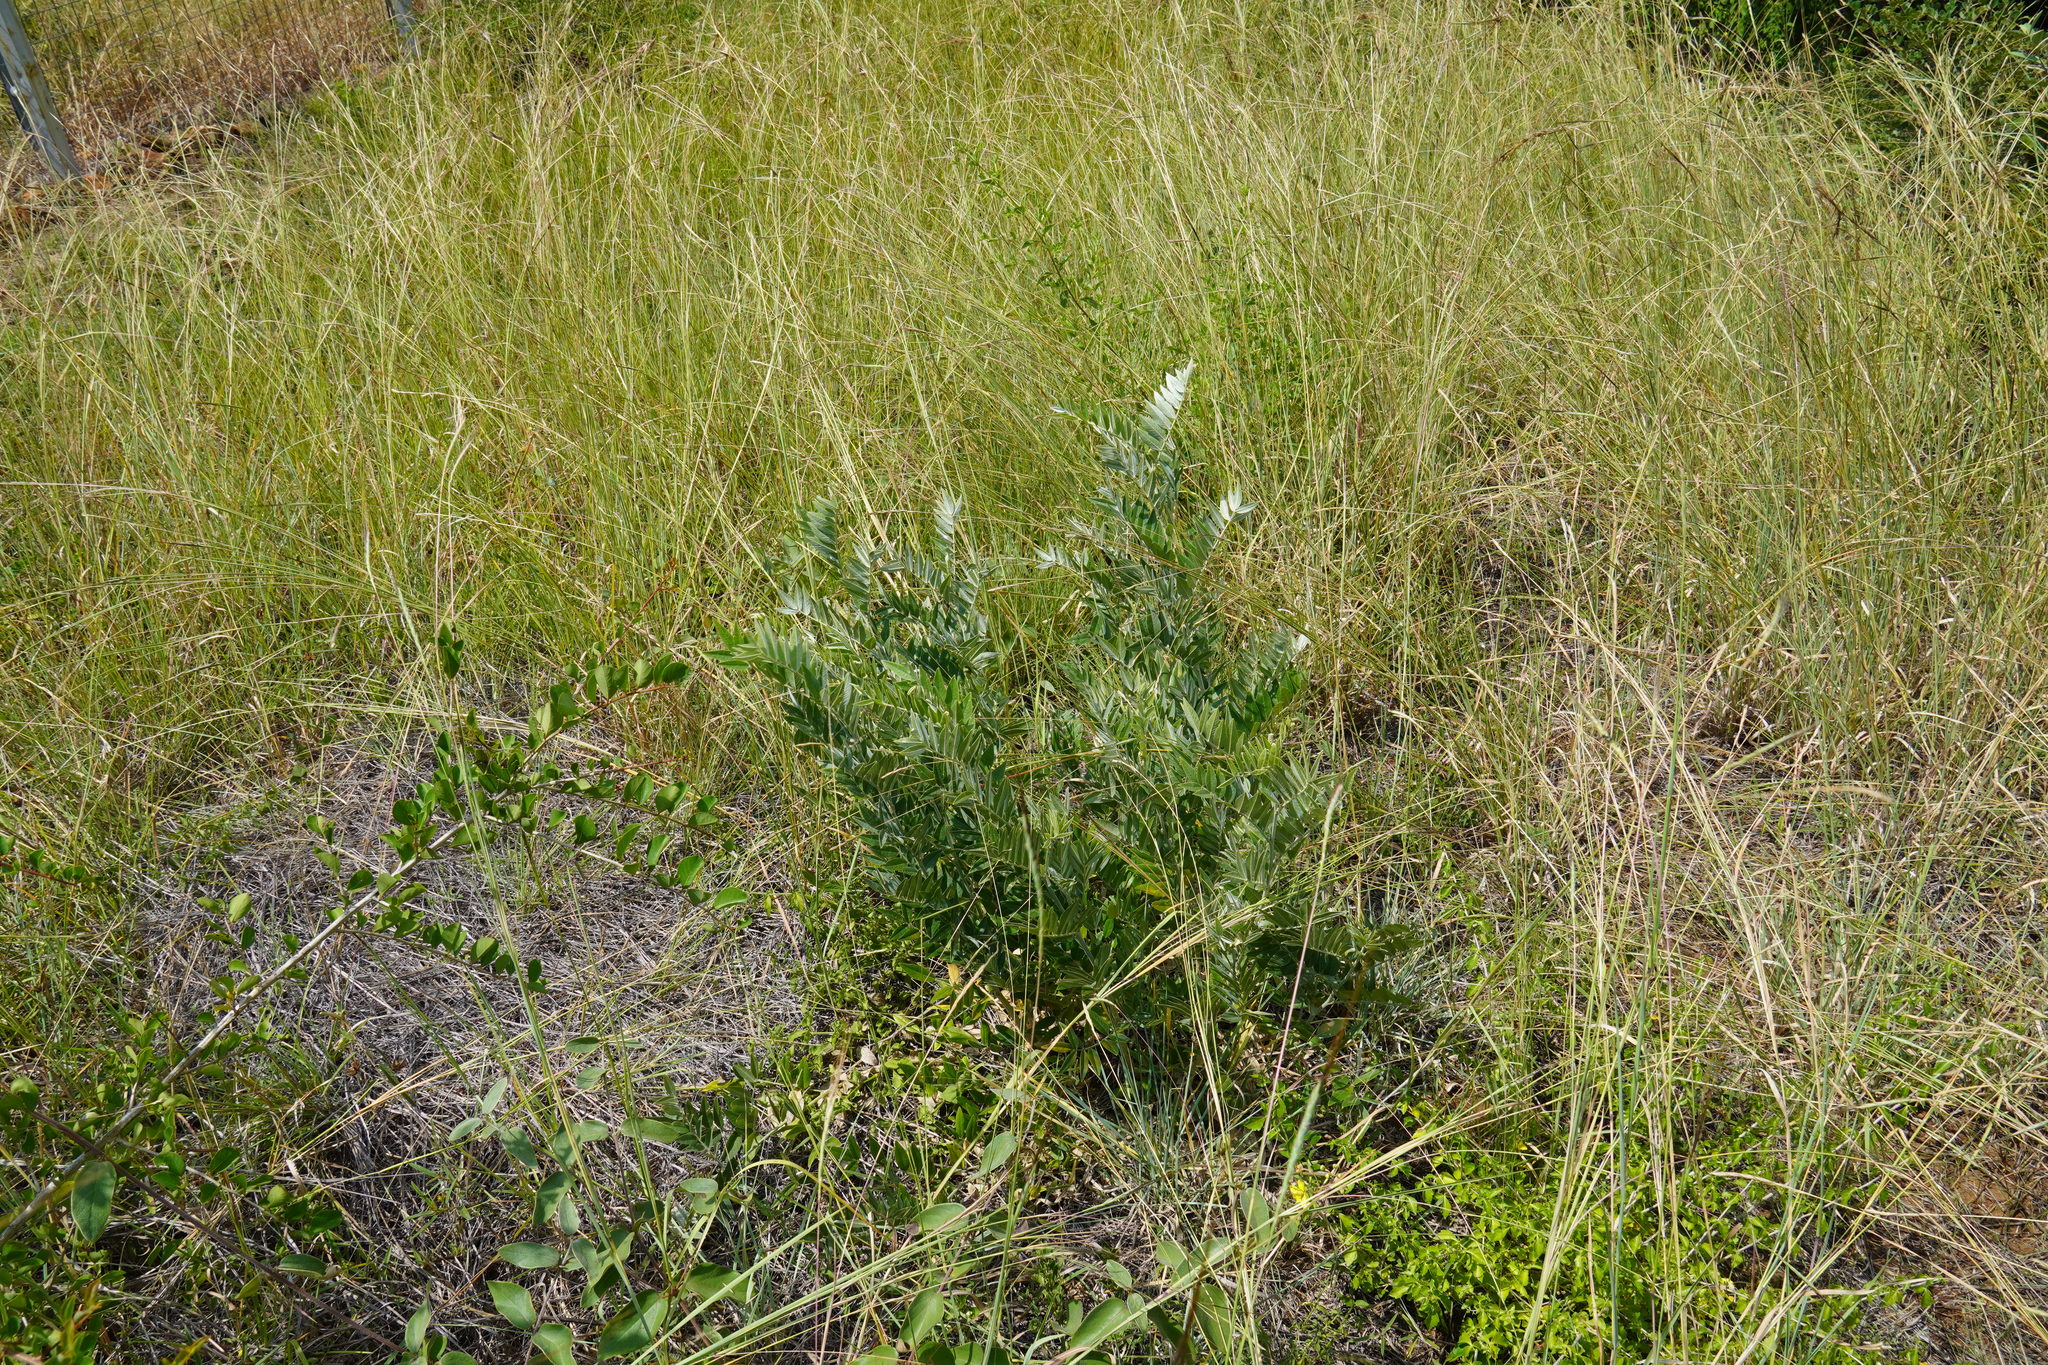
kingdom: Plantae
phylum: Tracheophyta
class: Magnoliopsida
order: Fabales
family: Fabaceae
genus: Mundulea
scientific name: Mundulea sericea
